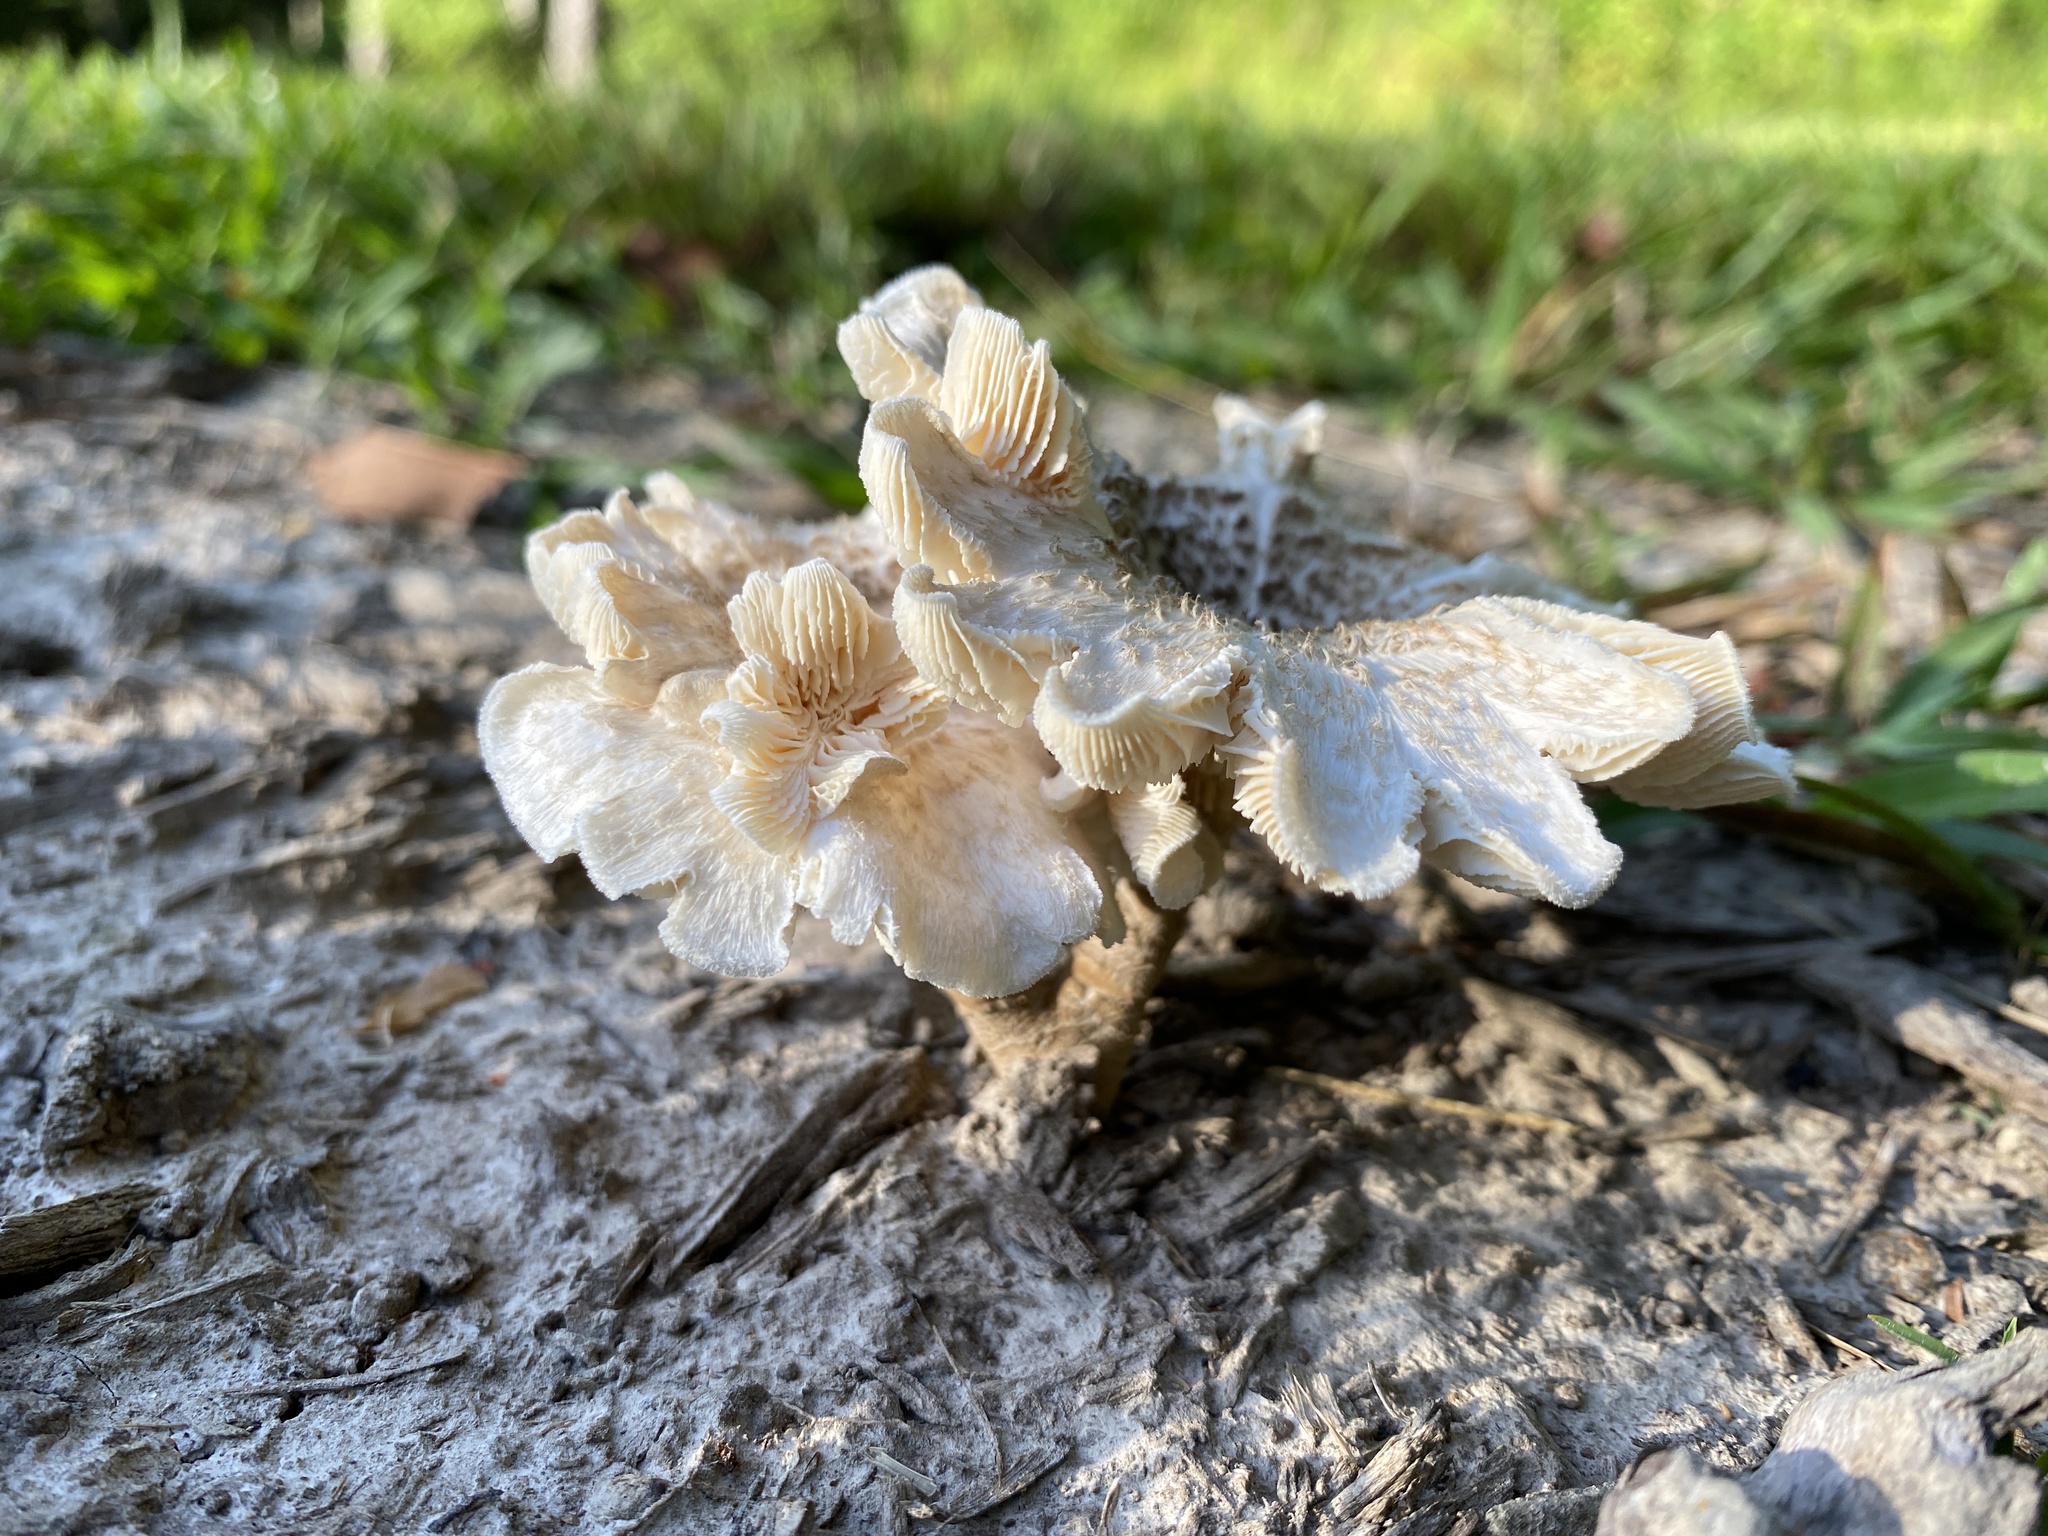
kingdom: Fungi
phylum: Basidiomycota
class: Agaricomycetes
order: Polyporales
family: Polyporaceae
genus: Lentinus
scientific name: Lentinus tigrinus
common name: Tiger sawgill
